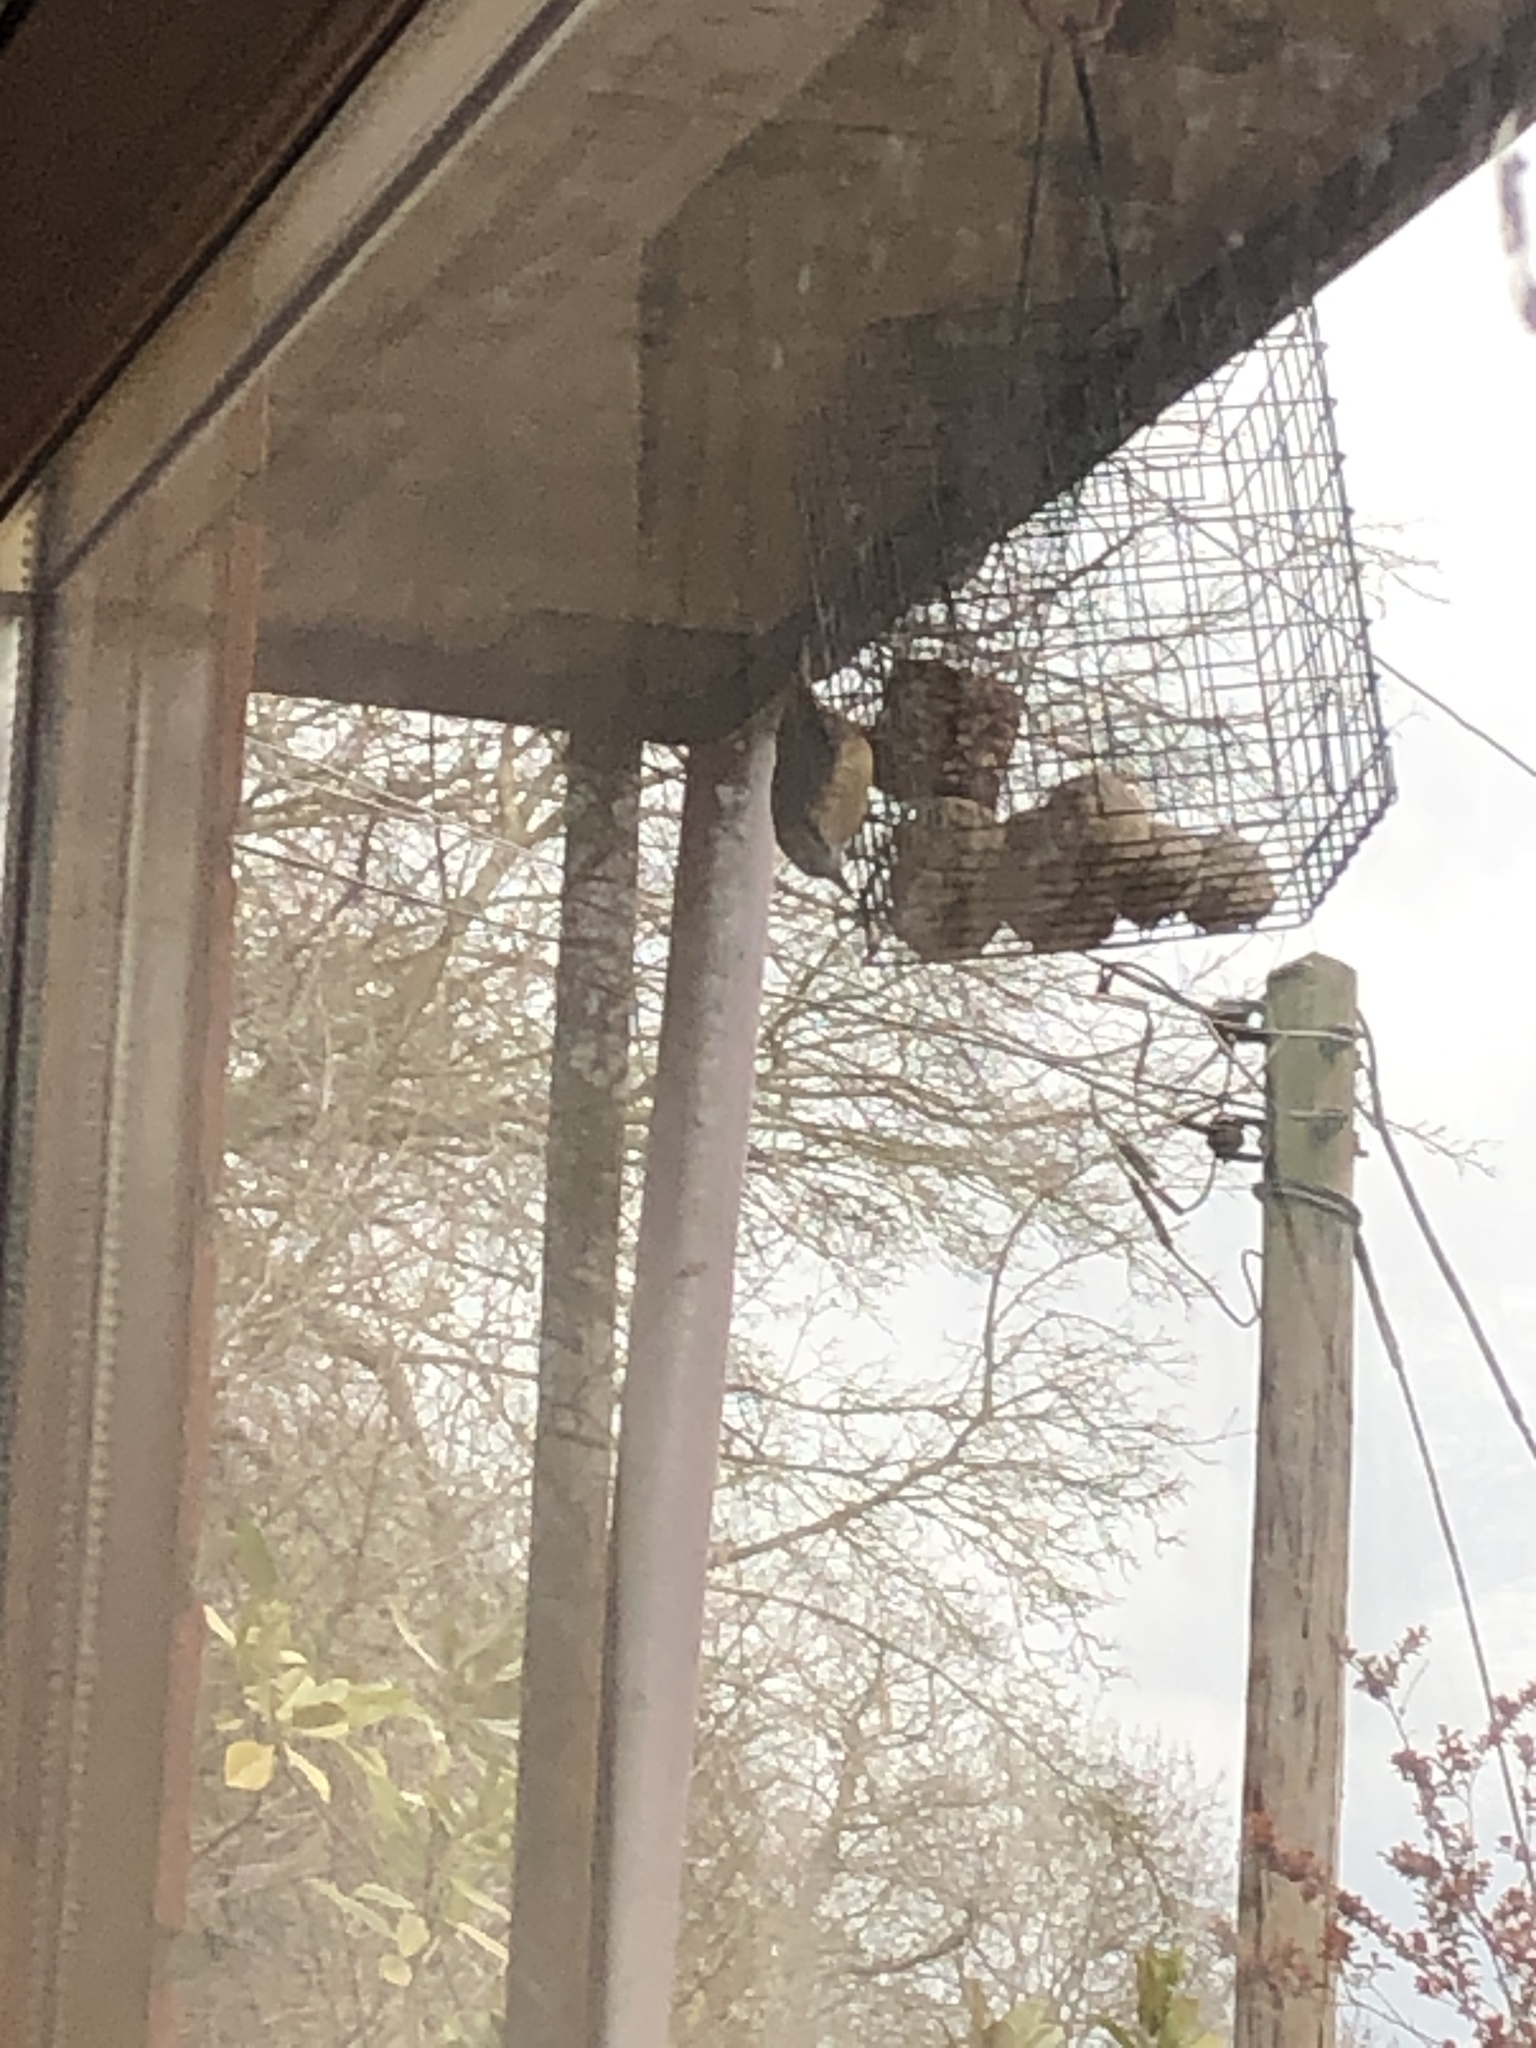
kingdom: Animalia
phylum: Chordata
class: Aves
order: Passeriformes
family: Sittidae
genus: Sitta
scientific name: Sitta europaea
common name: Eurasian nuthatch
